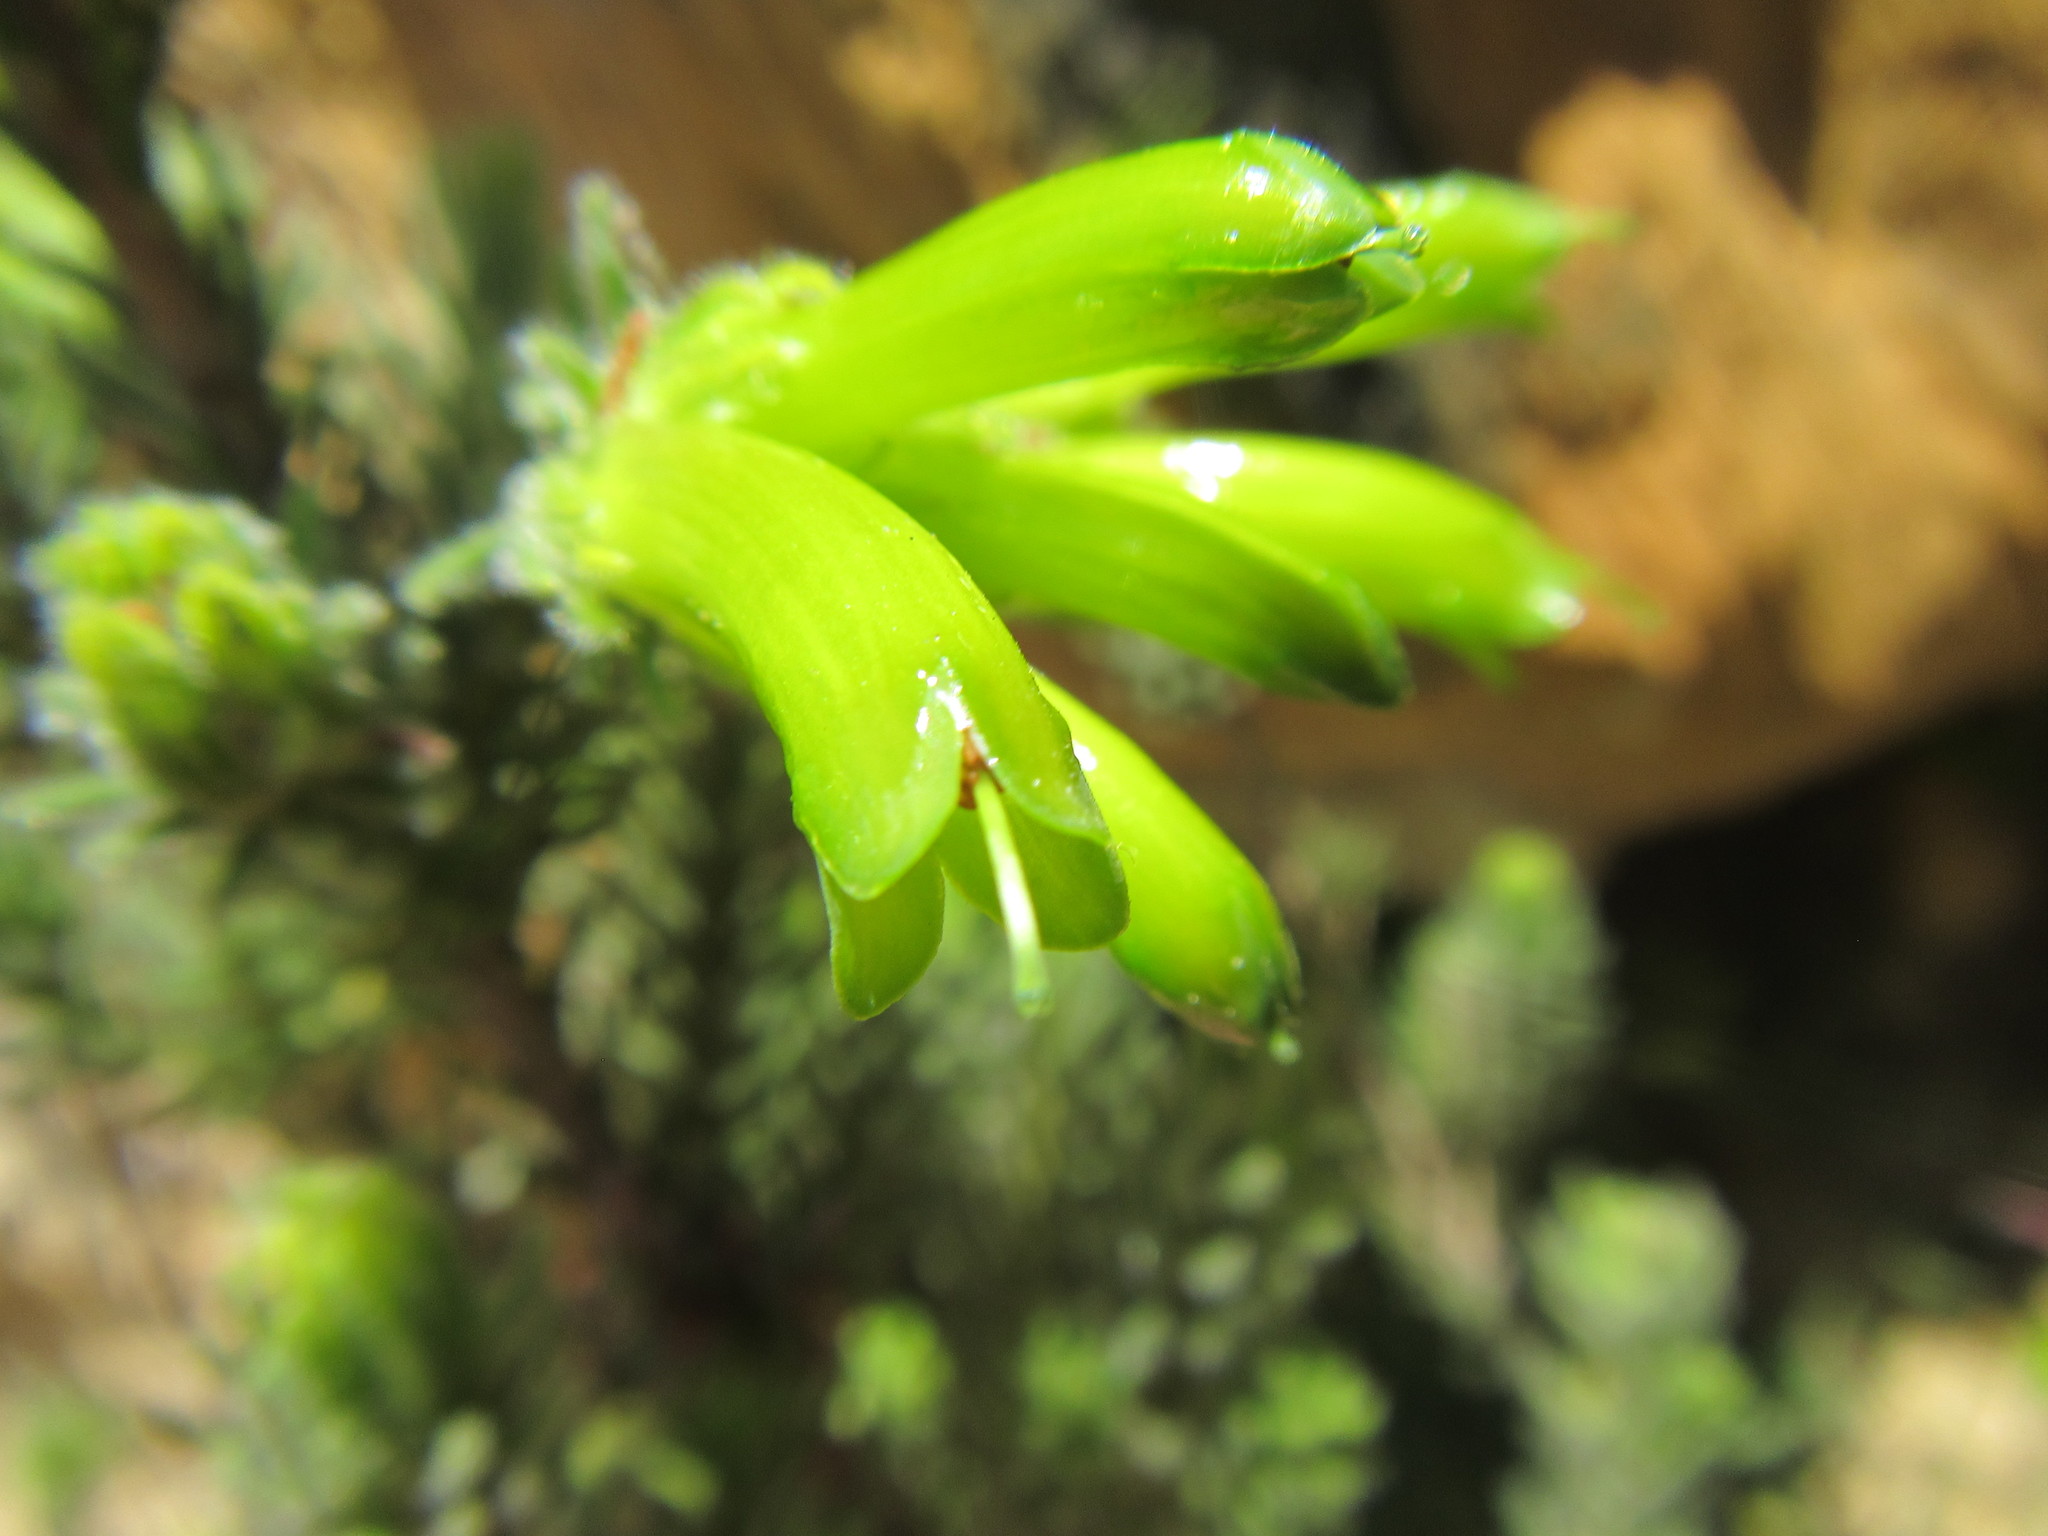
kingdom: Plantae
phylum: Tracheophyta
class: Magnoliopsida
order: Ericales
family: Ericaceae
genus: Erica
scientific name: Erica unicolor
